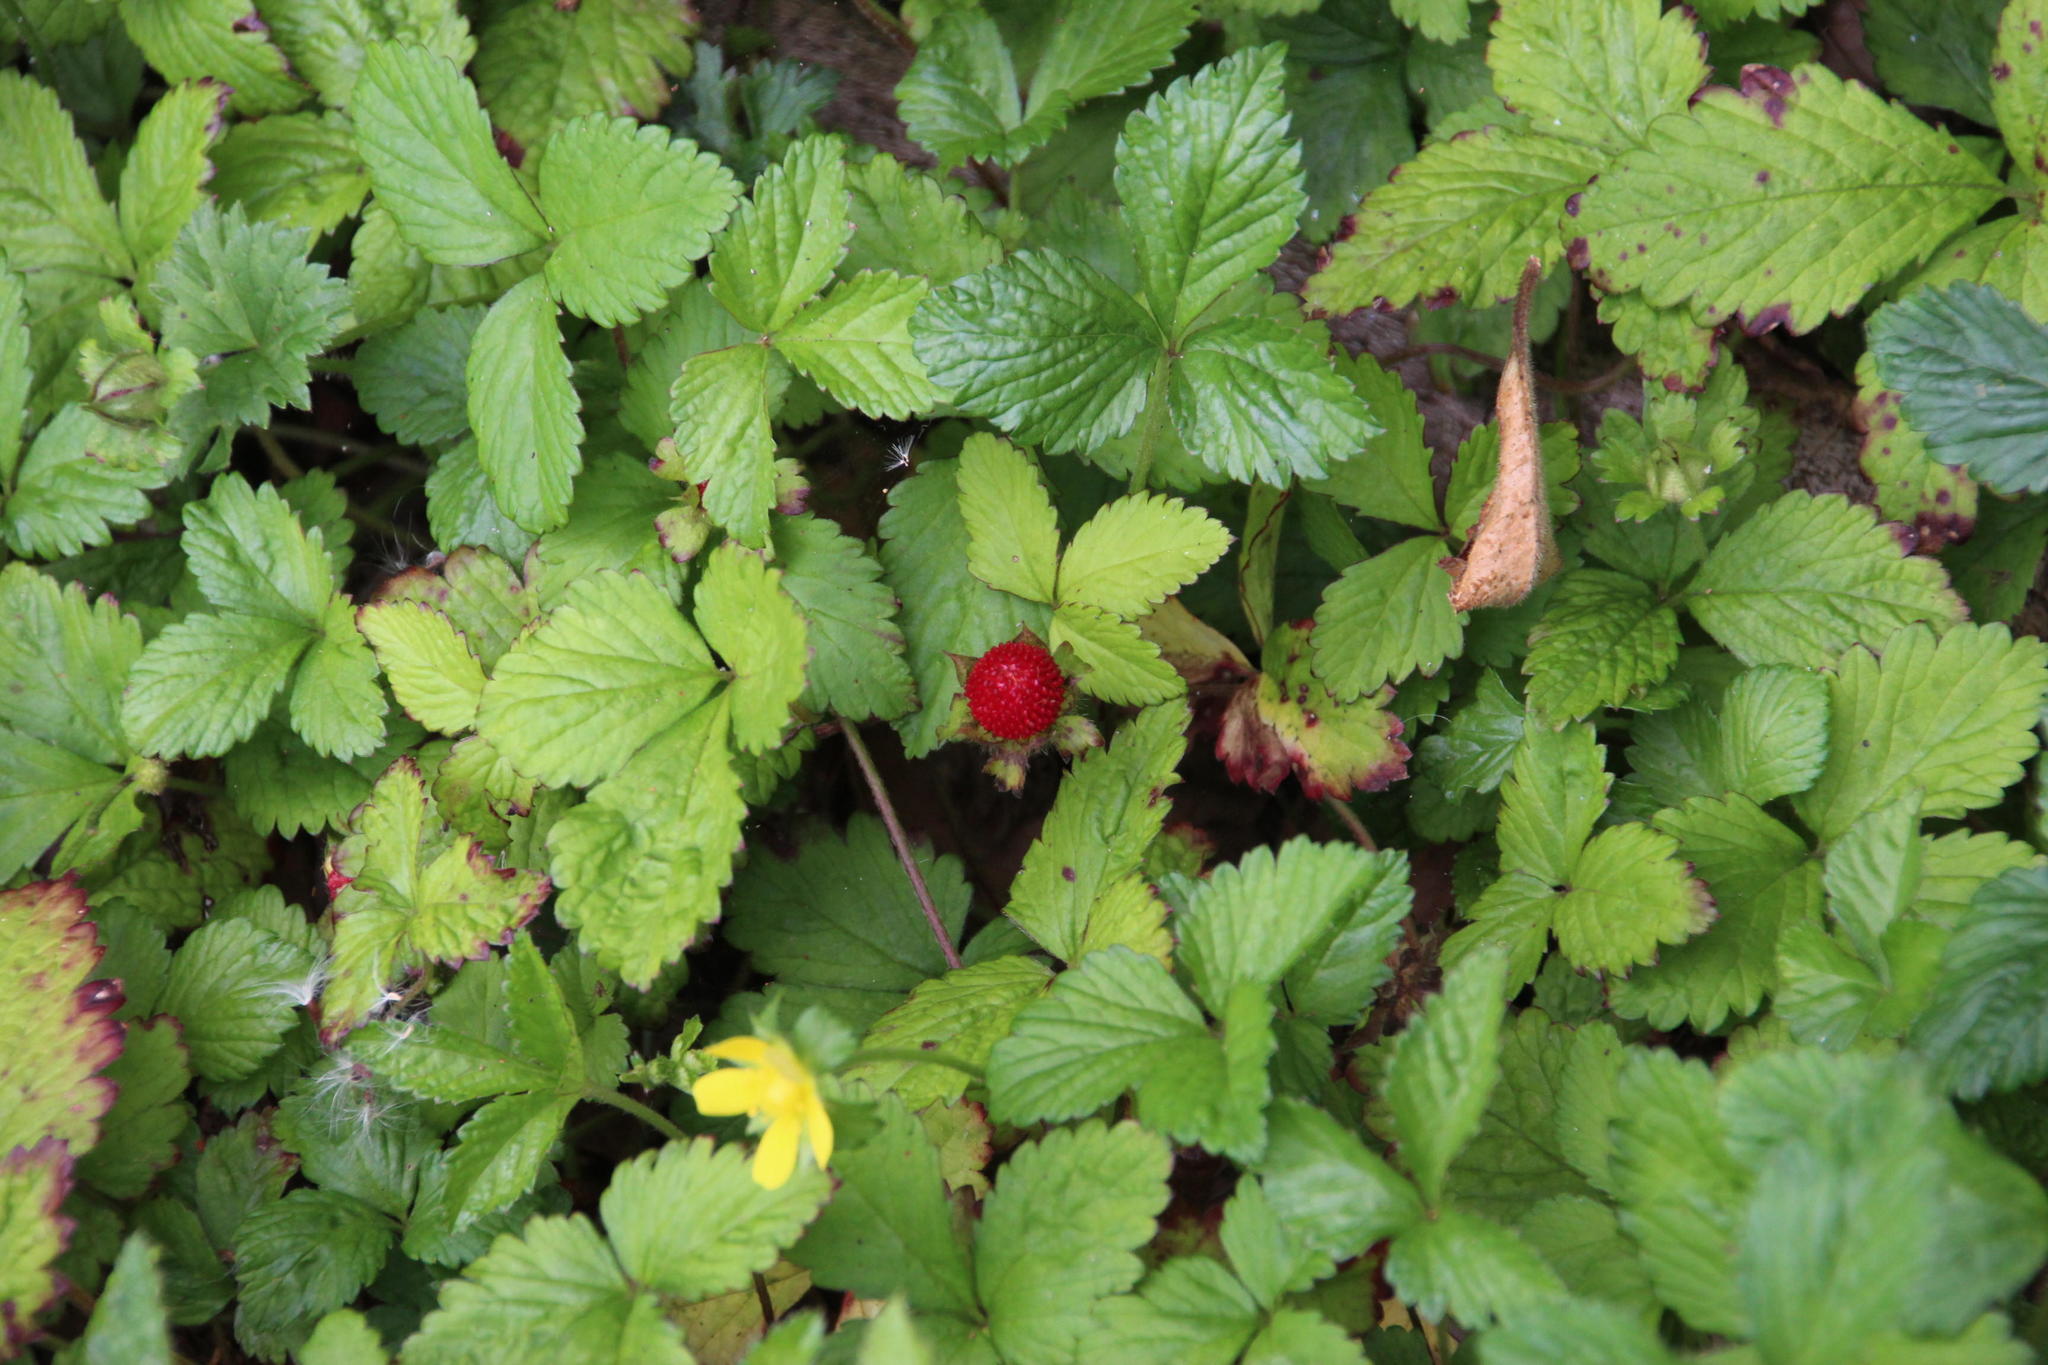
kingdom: Plantae
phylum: Tracheophyta
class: Magnoliopsida
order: Rosales
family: Rosaceae
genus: Potentilla
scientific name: Potentilla indica
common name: Yellow-flowered strawberry
